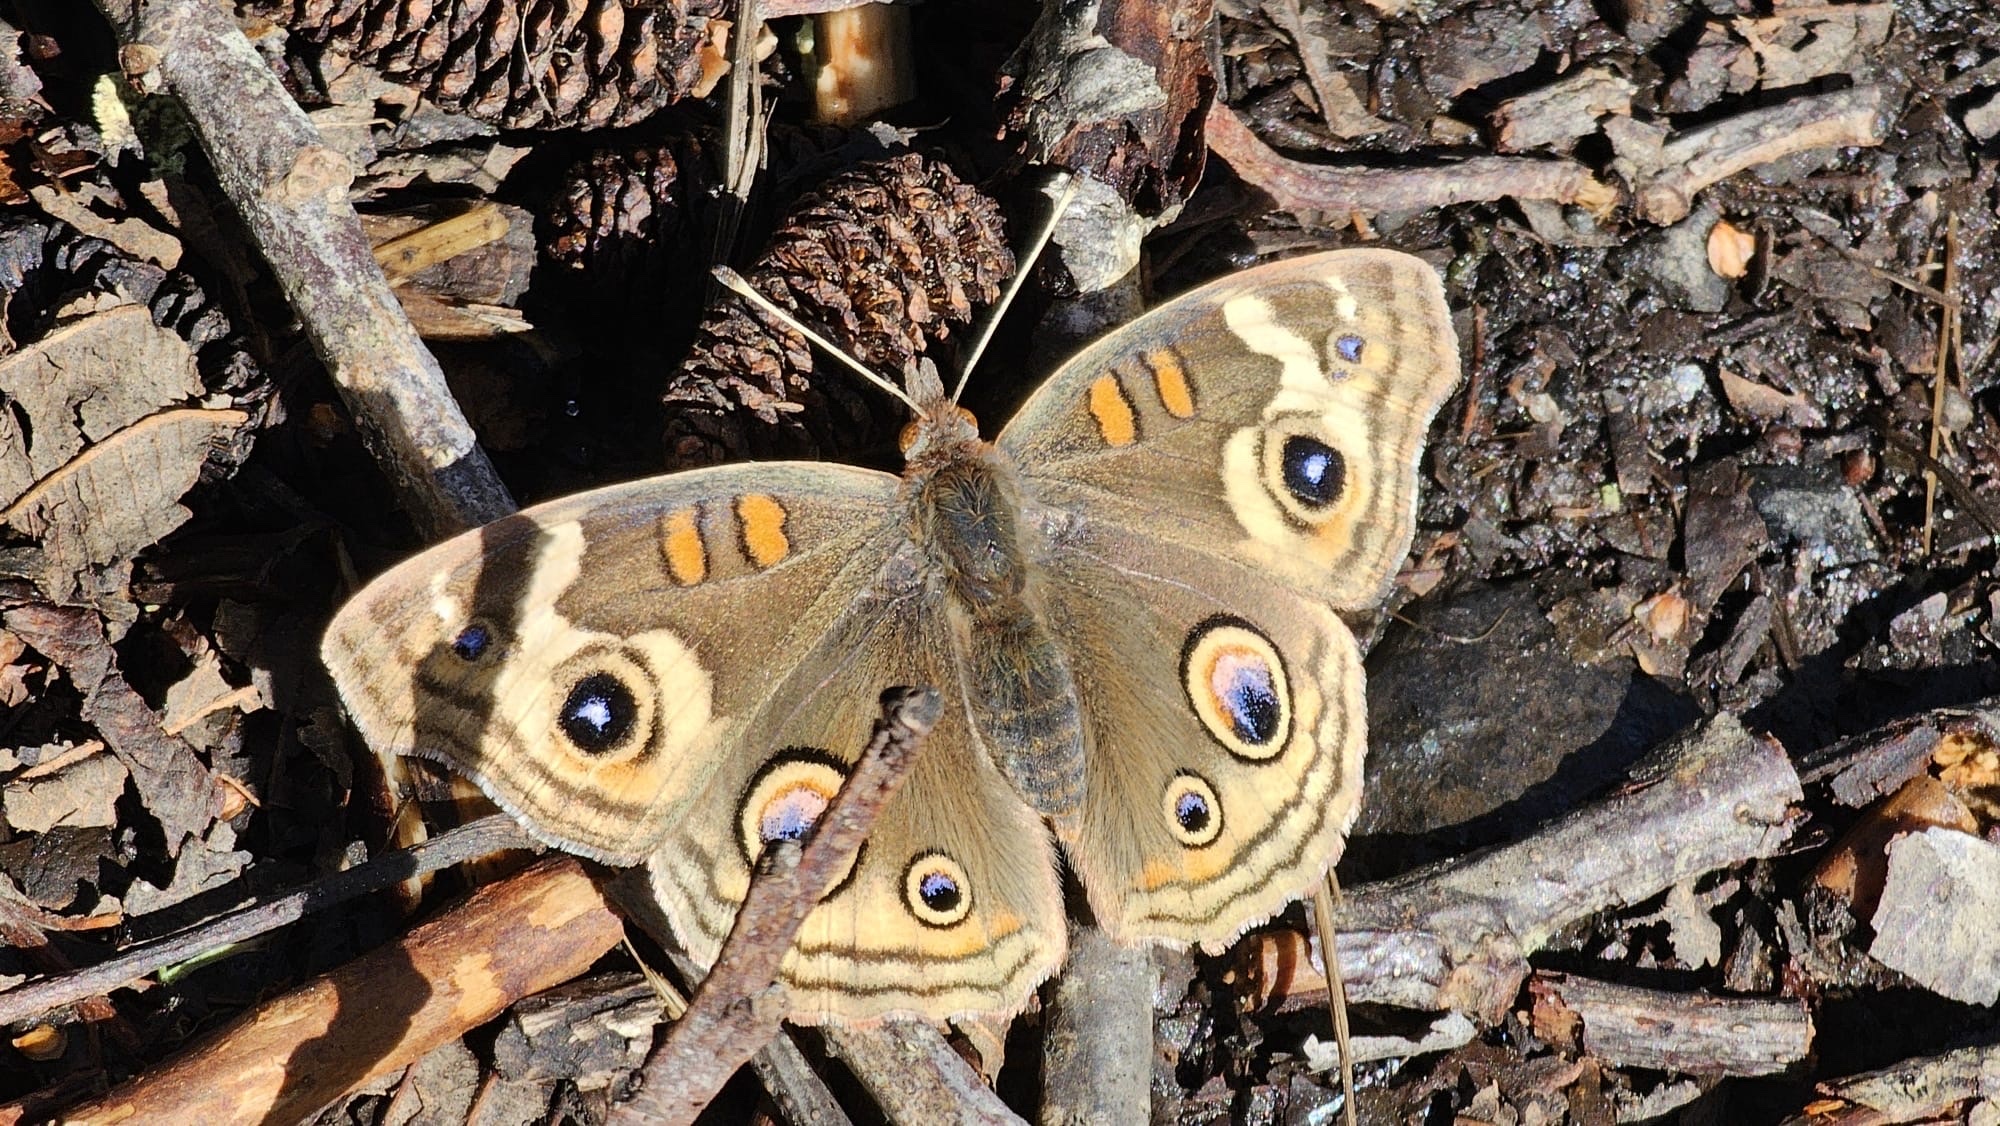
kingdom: Animalia
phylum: Arthropoda
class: Insecta
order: Lepidoptera
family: Nymphalidae
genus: Junonia
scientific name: Junonia grisea
